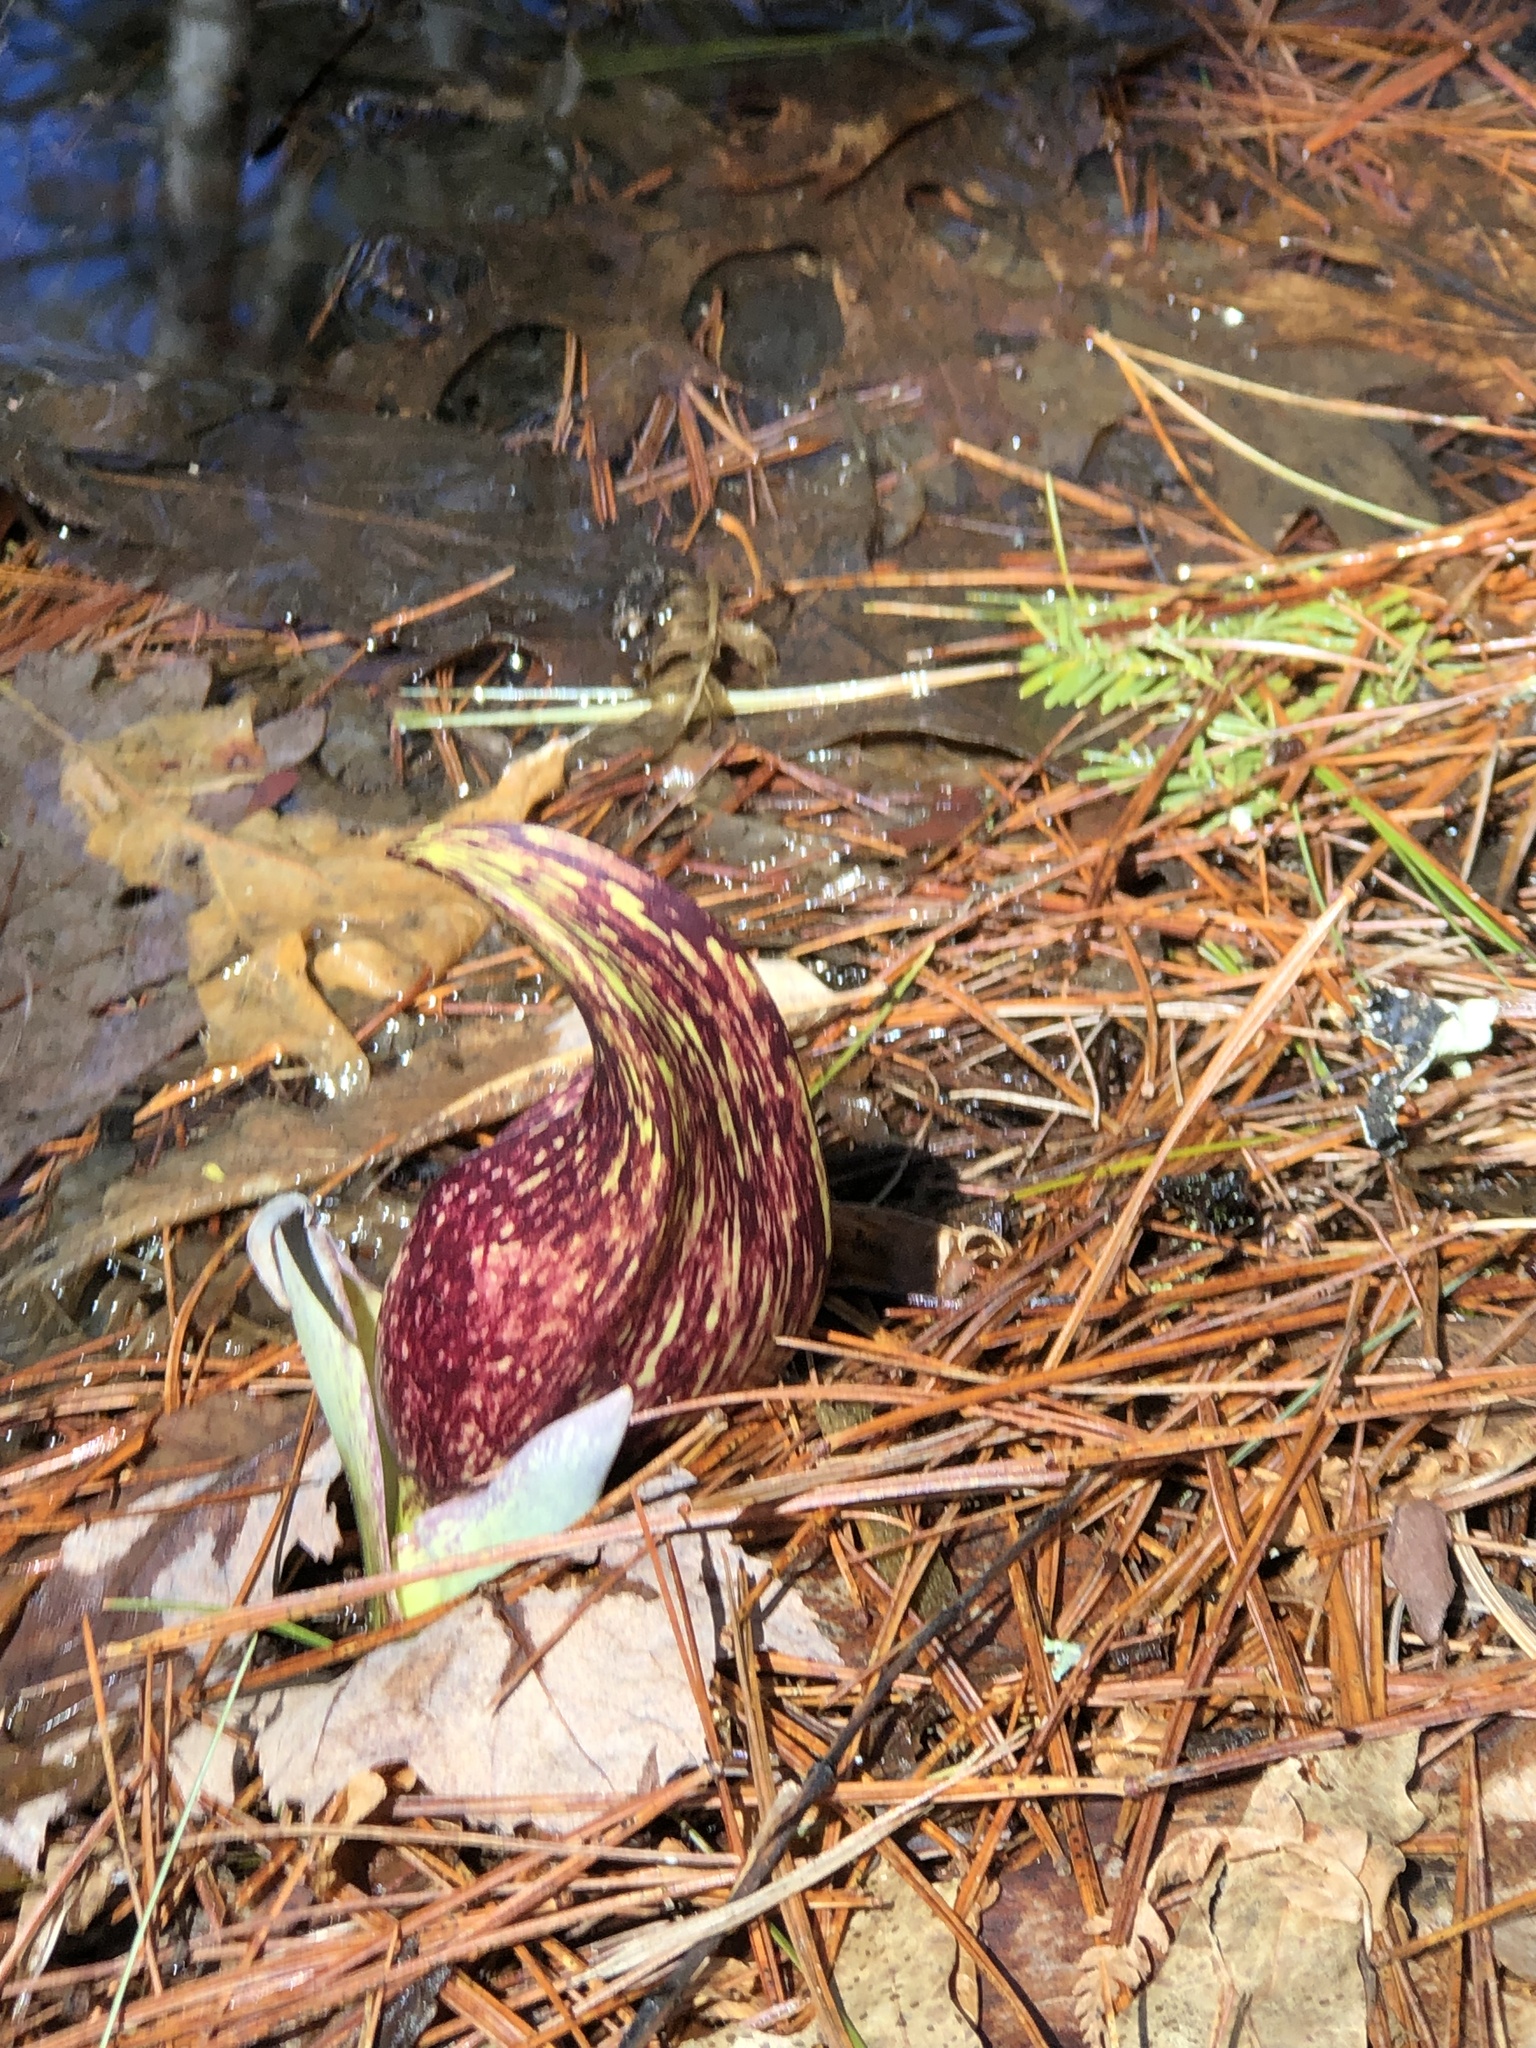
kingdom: Plantae
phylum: Tracheophyta
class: Liliopsida
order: Alismatales
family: Araceae
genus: Symplocarpus
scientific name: Symplocarpus foetidus
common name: Eastern skunk cabbage
